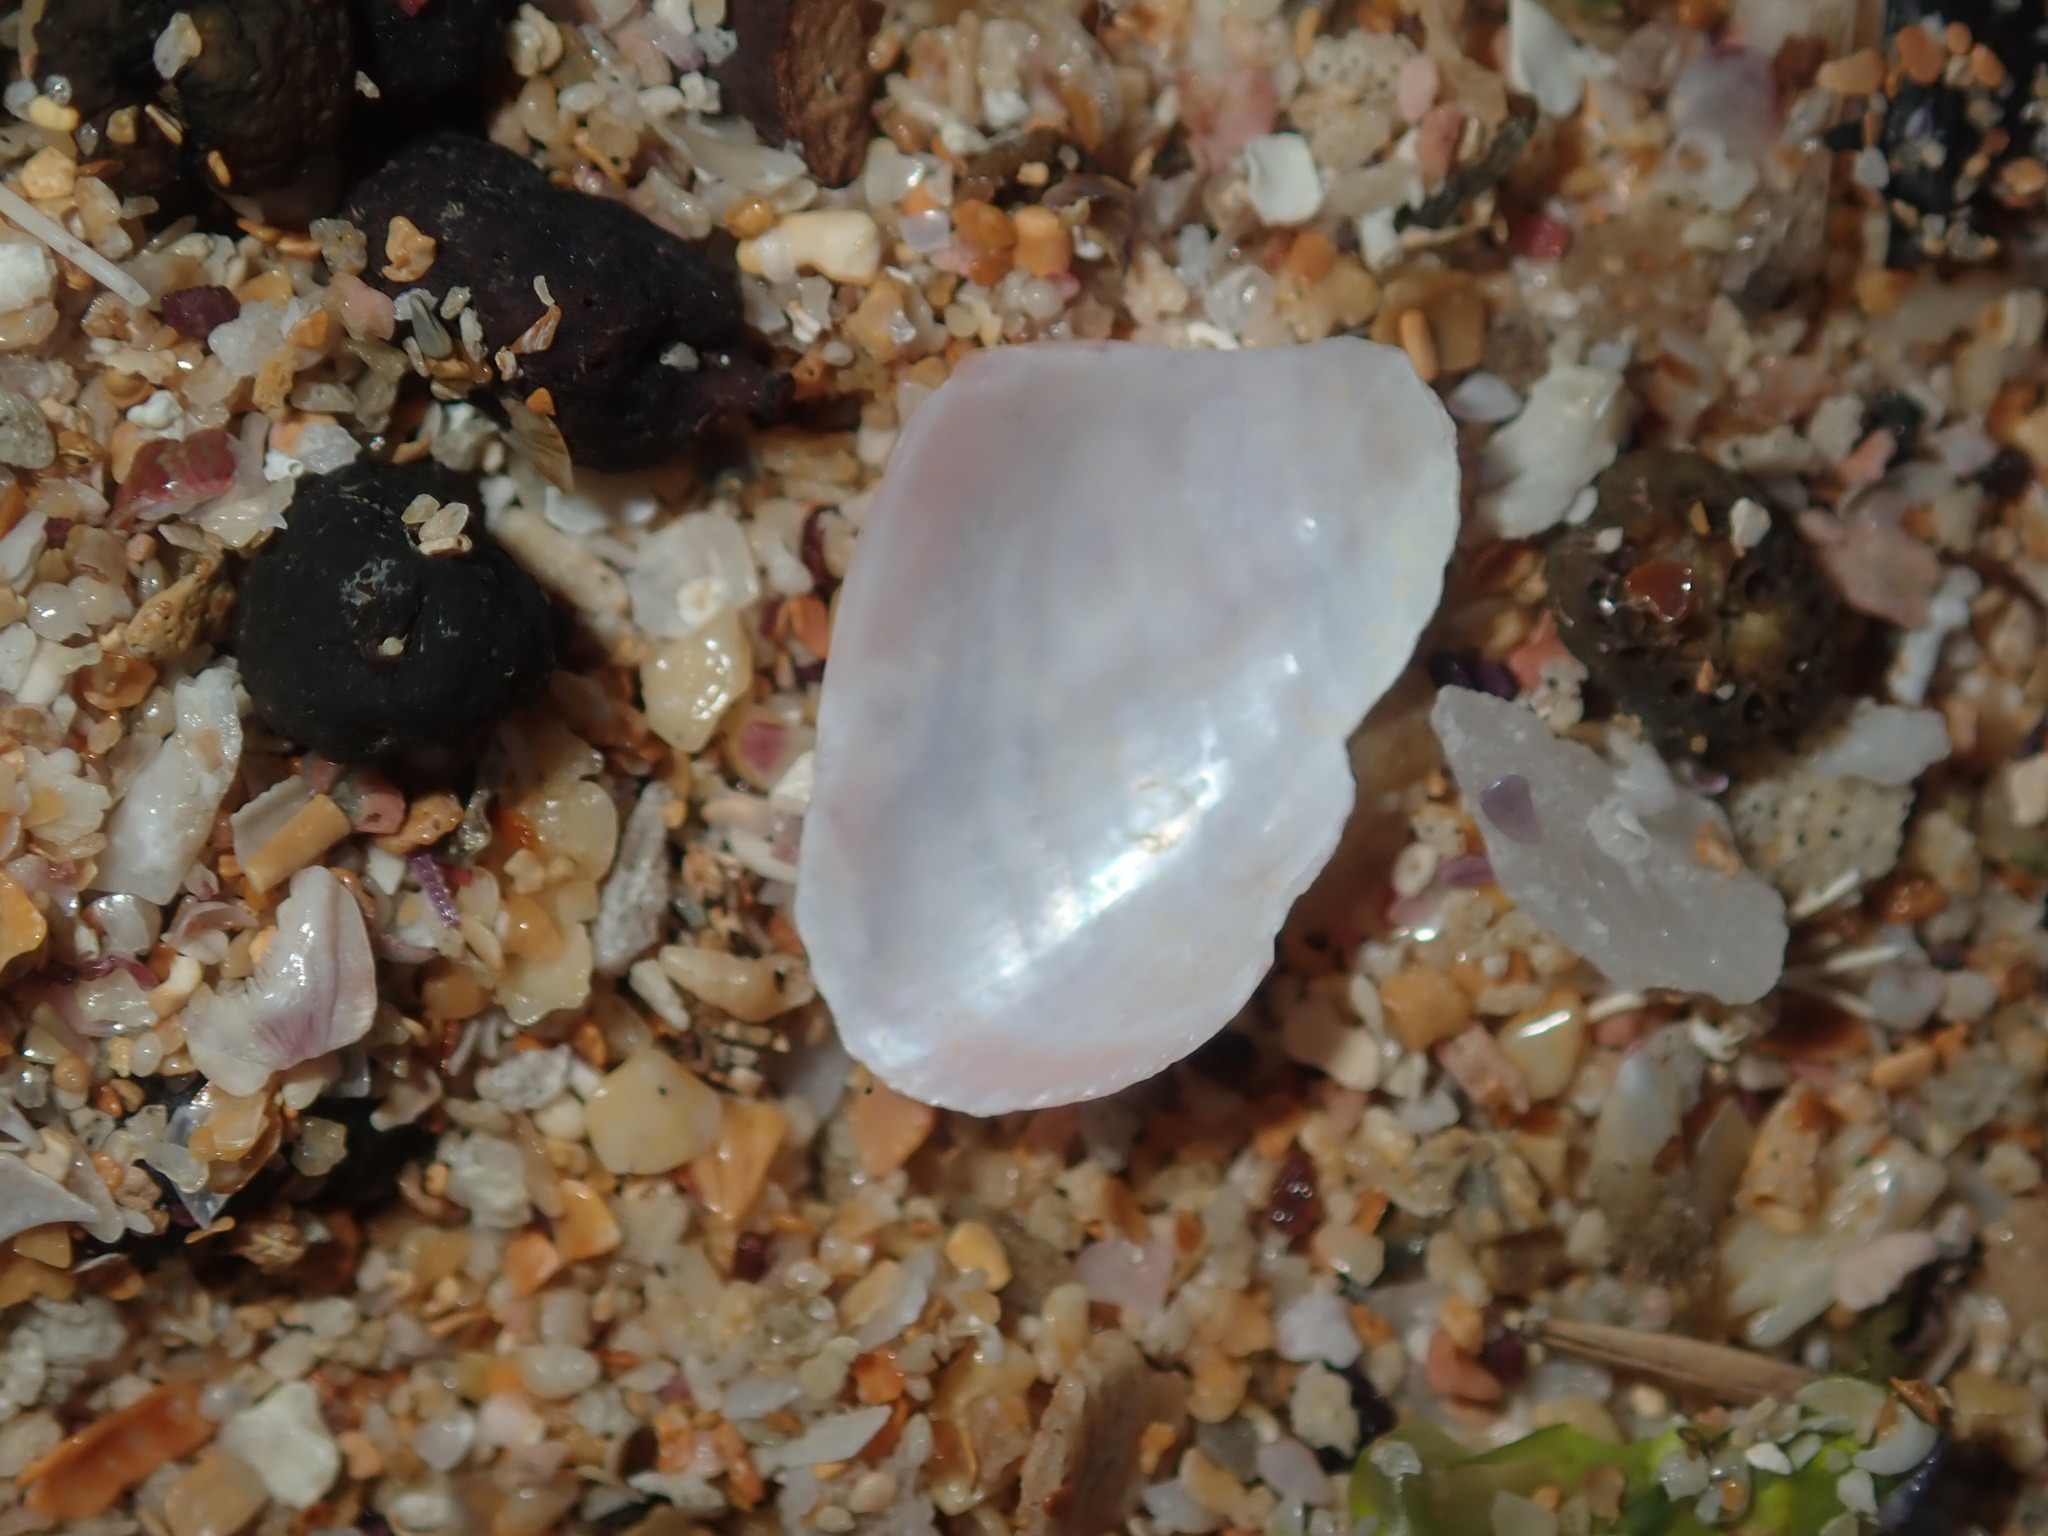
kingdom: Animalia
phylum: Mollusca
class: Bivalvia
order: Mytilida
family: Mytilidae
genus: Musculus
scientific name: Musculus impactus
